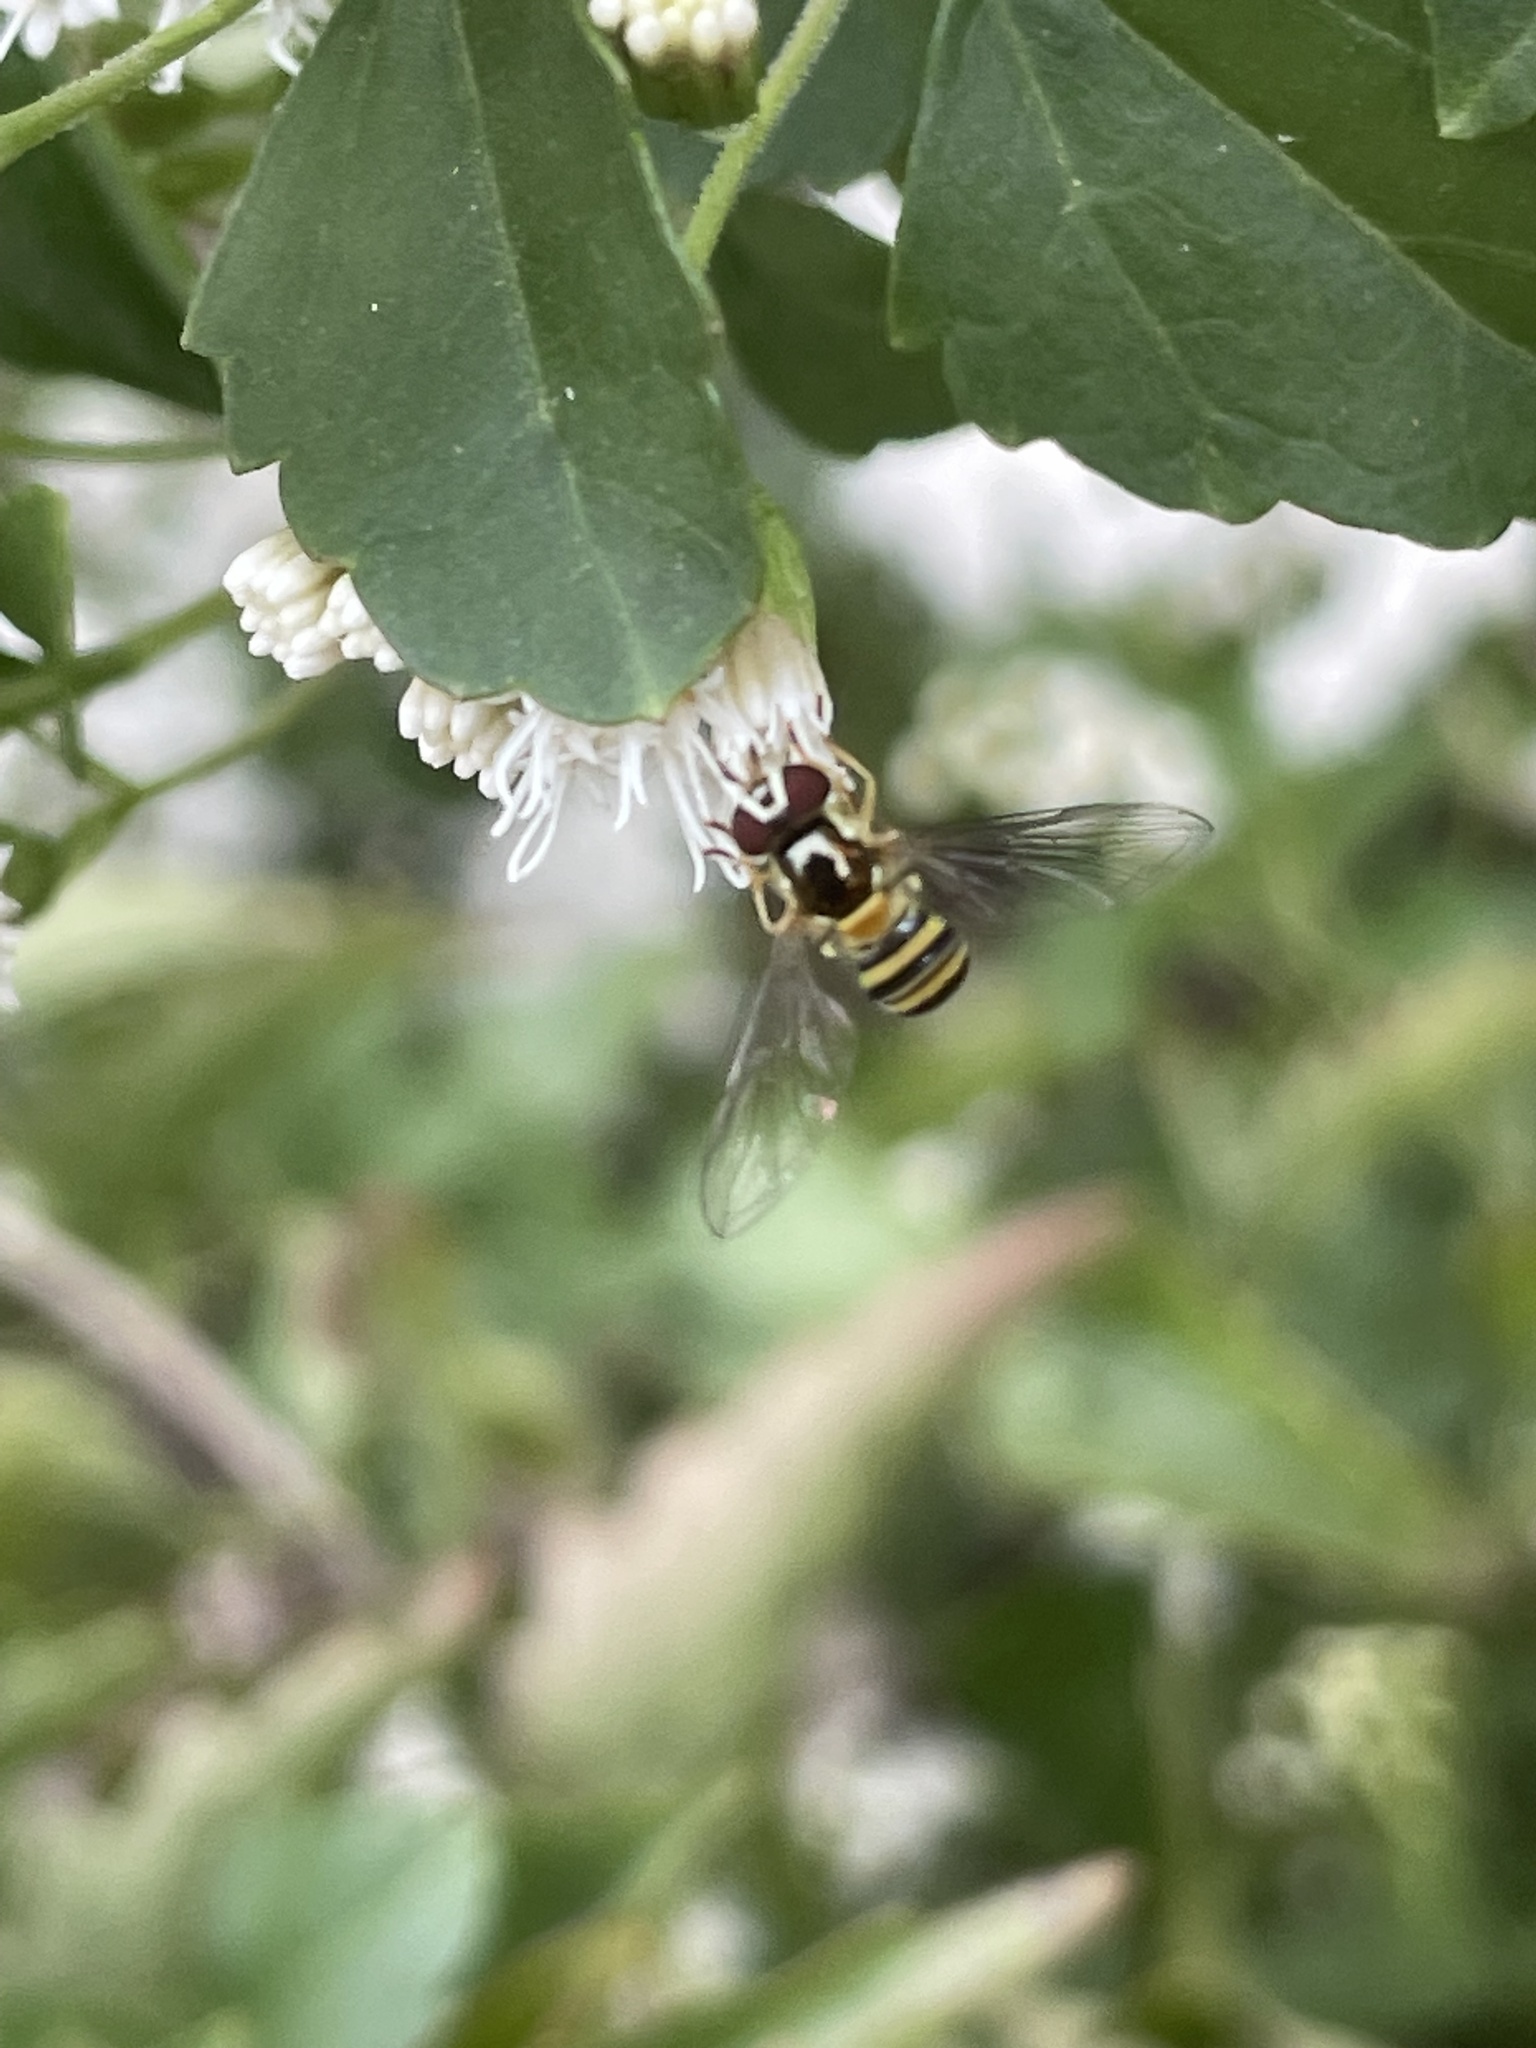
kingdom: Animalia
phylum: Arthropoda
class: Insecta
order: Diptera
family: Syrphidae
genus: Allograpta
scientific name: Allograpta obliqua
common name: Common oblique syrphid
